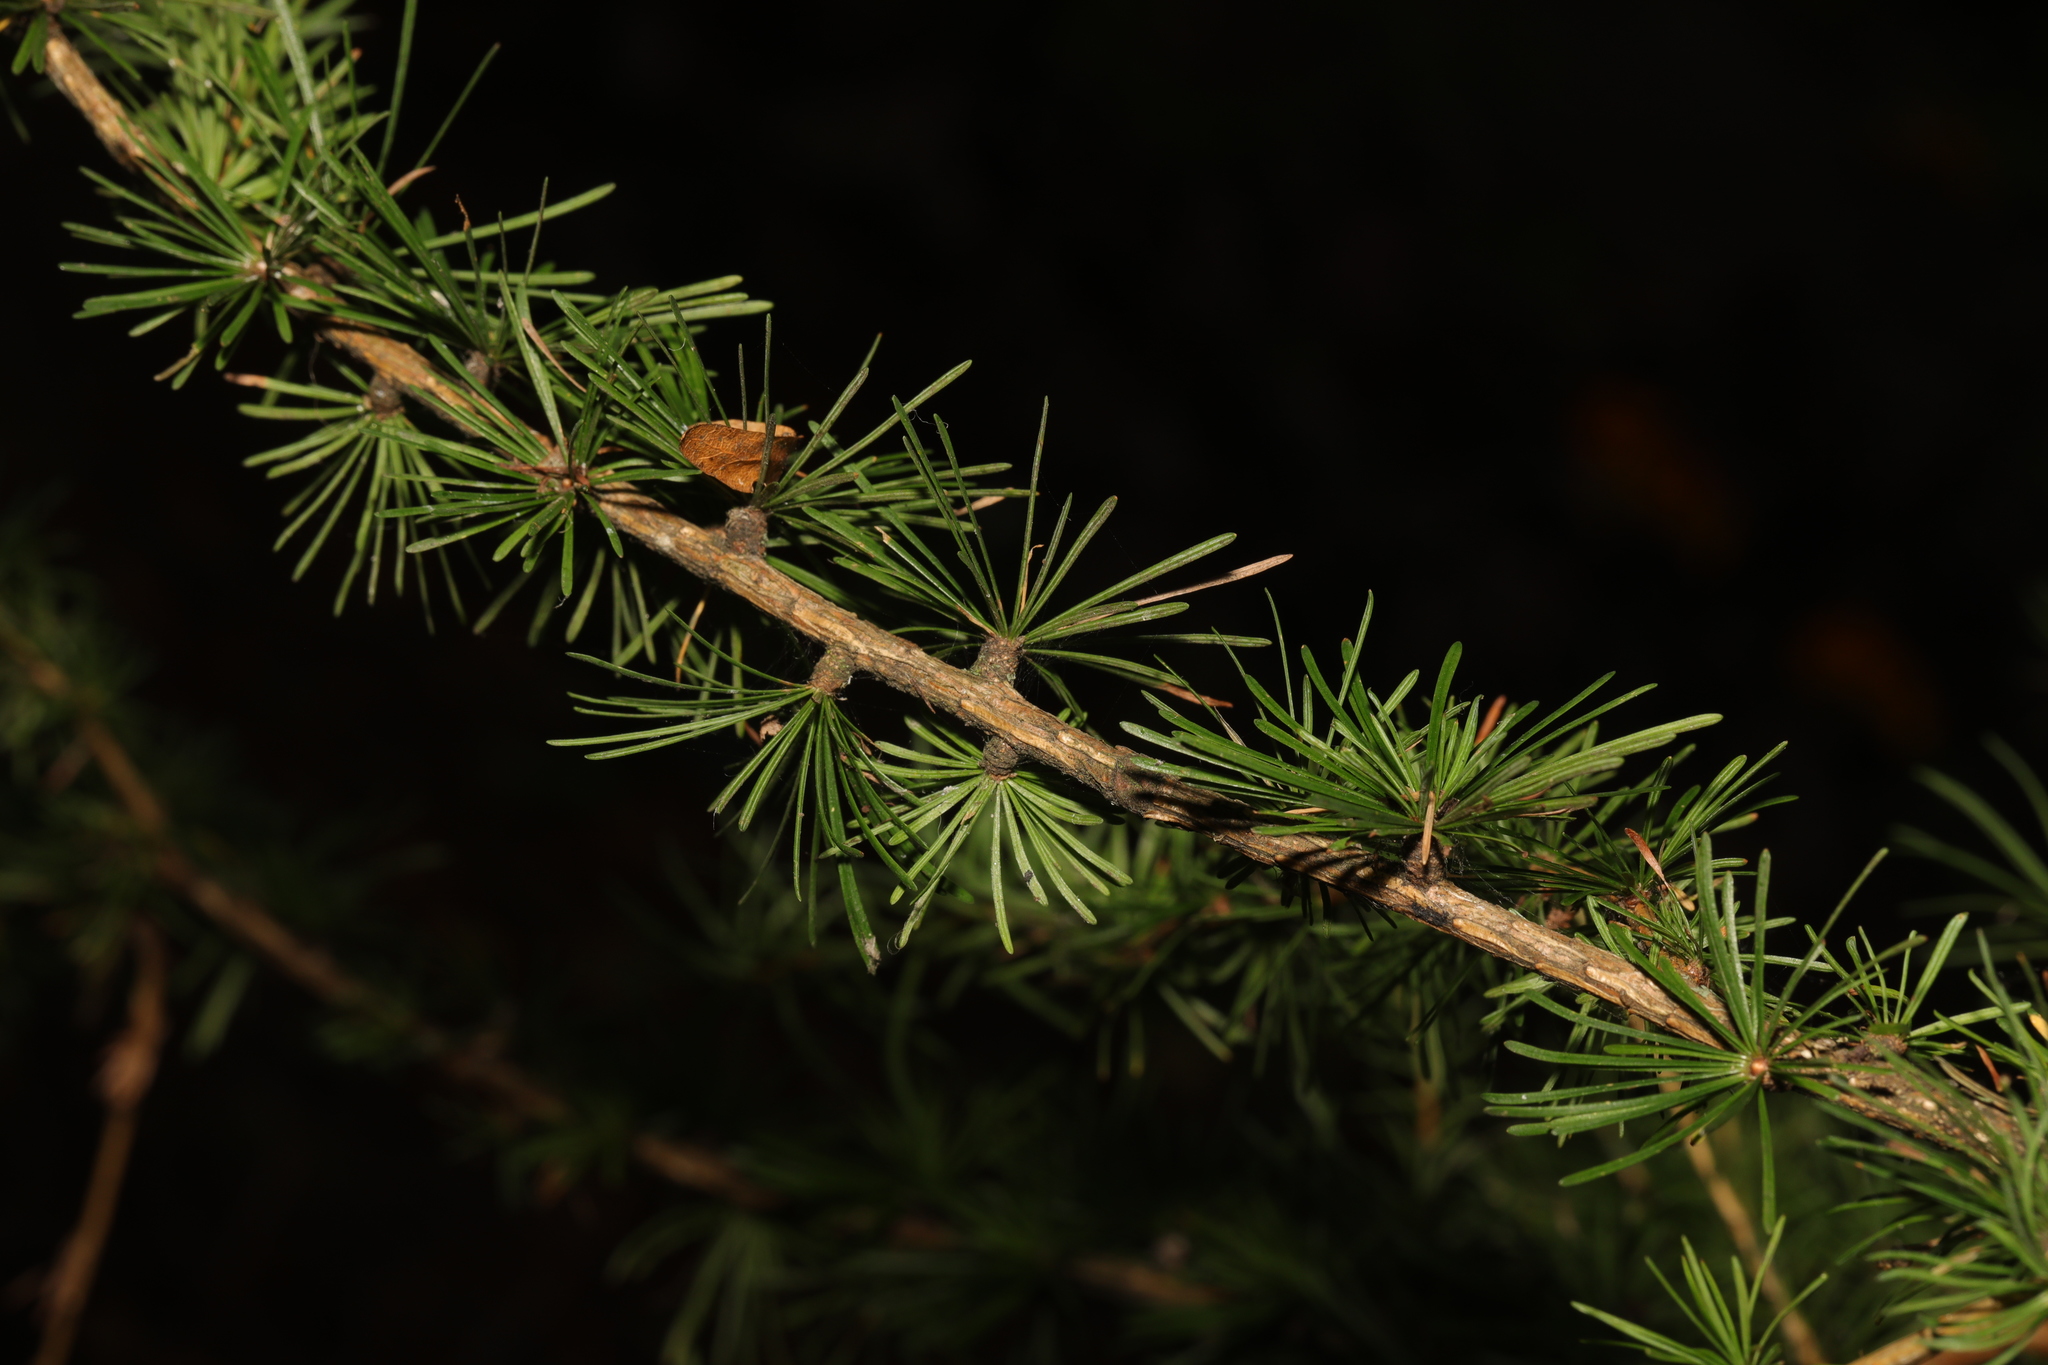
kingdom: Plantae
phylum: Tracheophyta
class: Pinopsida
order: Pinales
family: Pinaceae
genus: Larix
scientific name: Larix decidua
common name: European larch
